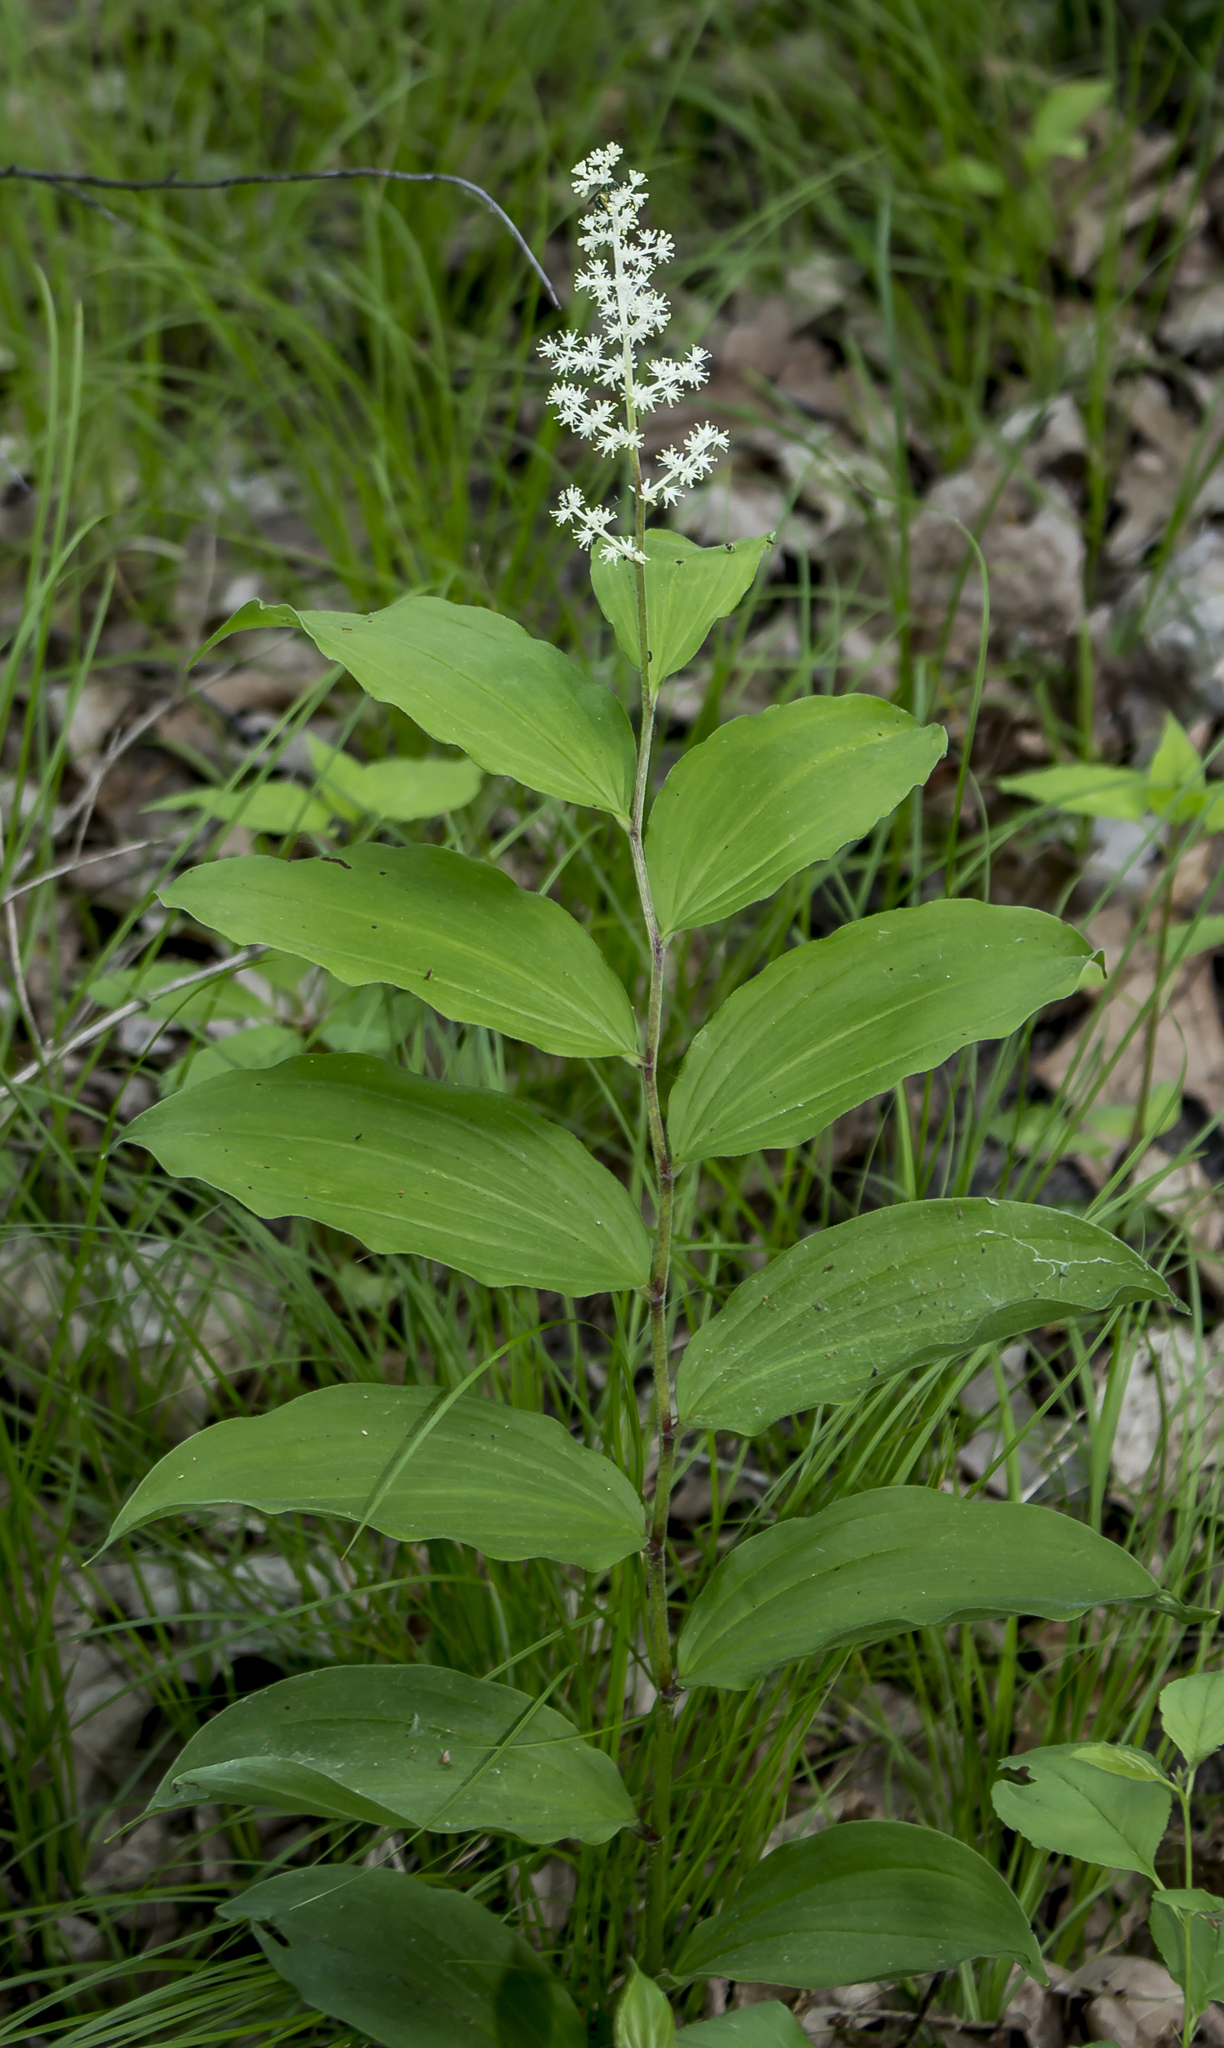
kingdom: Plantae
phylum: Tracheophyta
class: Liliopsida
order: Asparagales
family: Asparagaceae
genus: Maianthemum
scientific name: Maianthemum racemosum
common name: False spikenard
